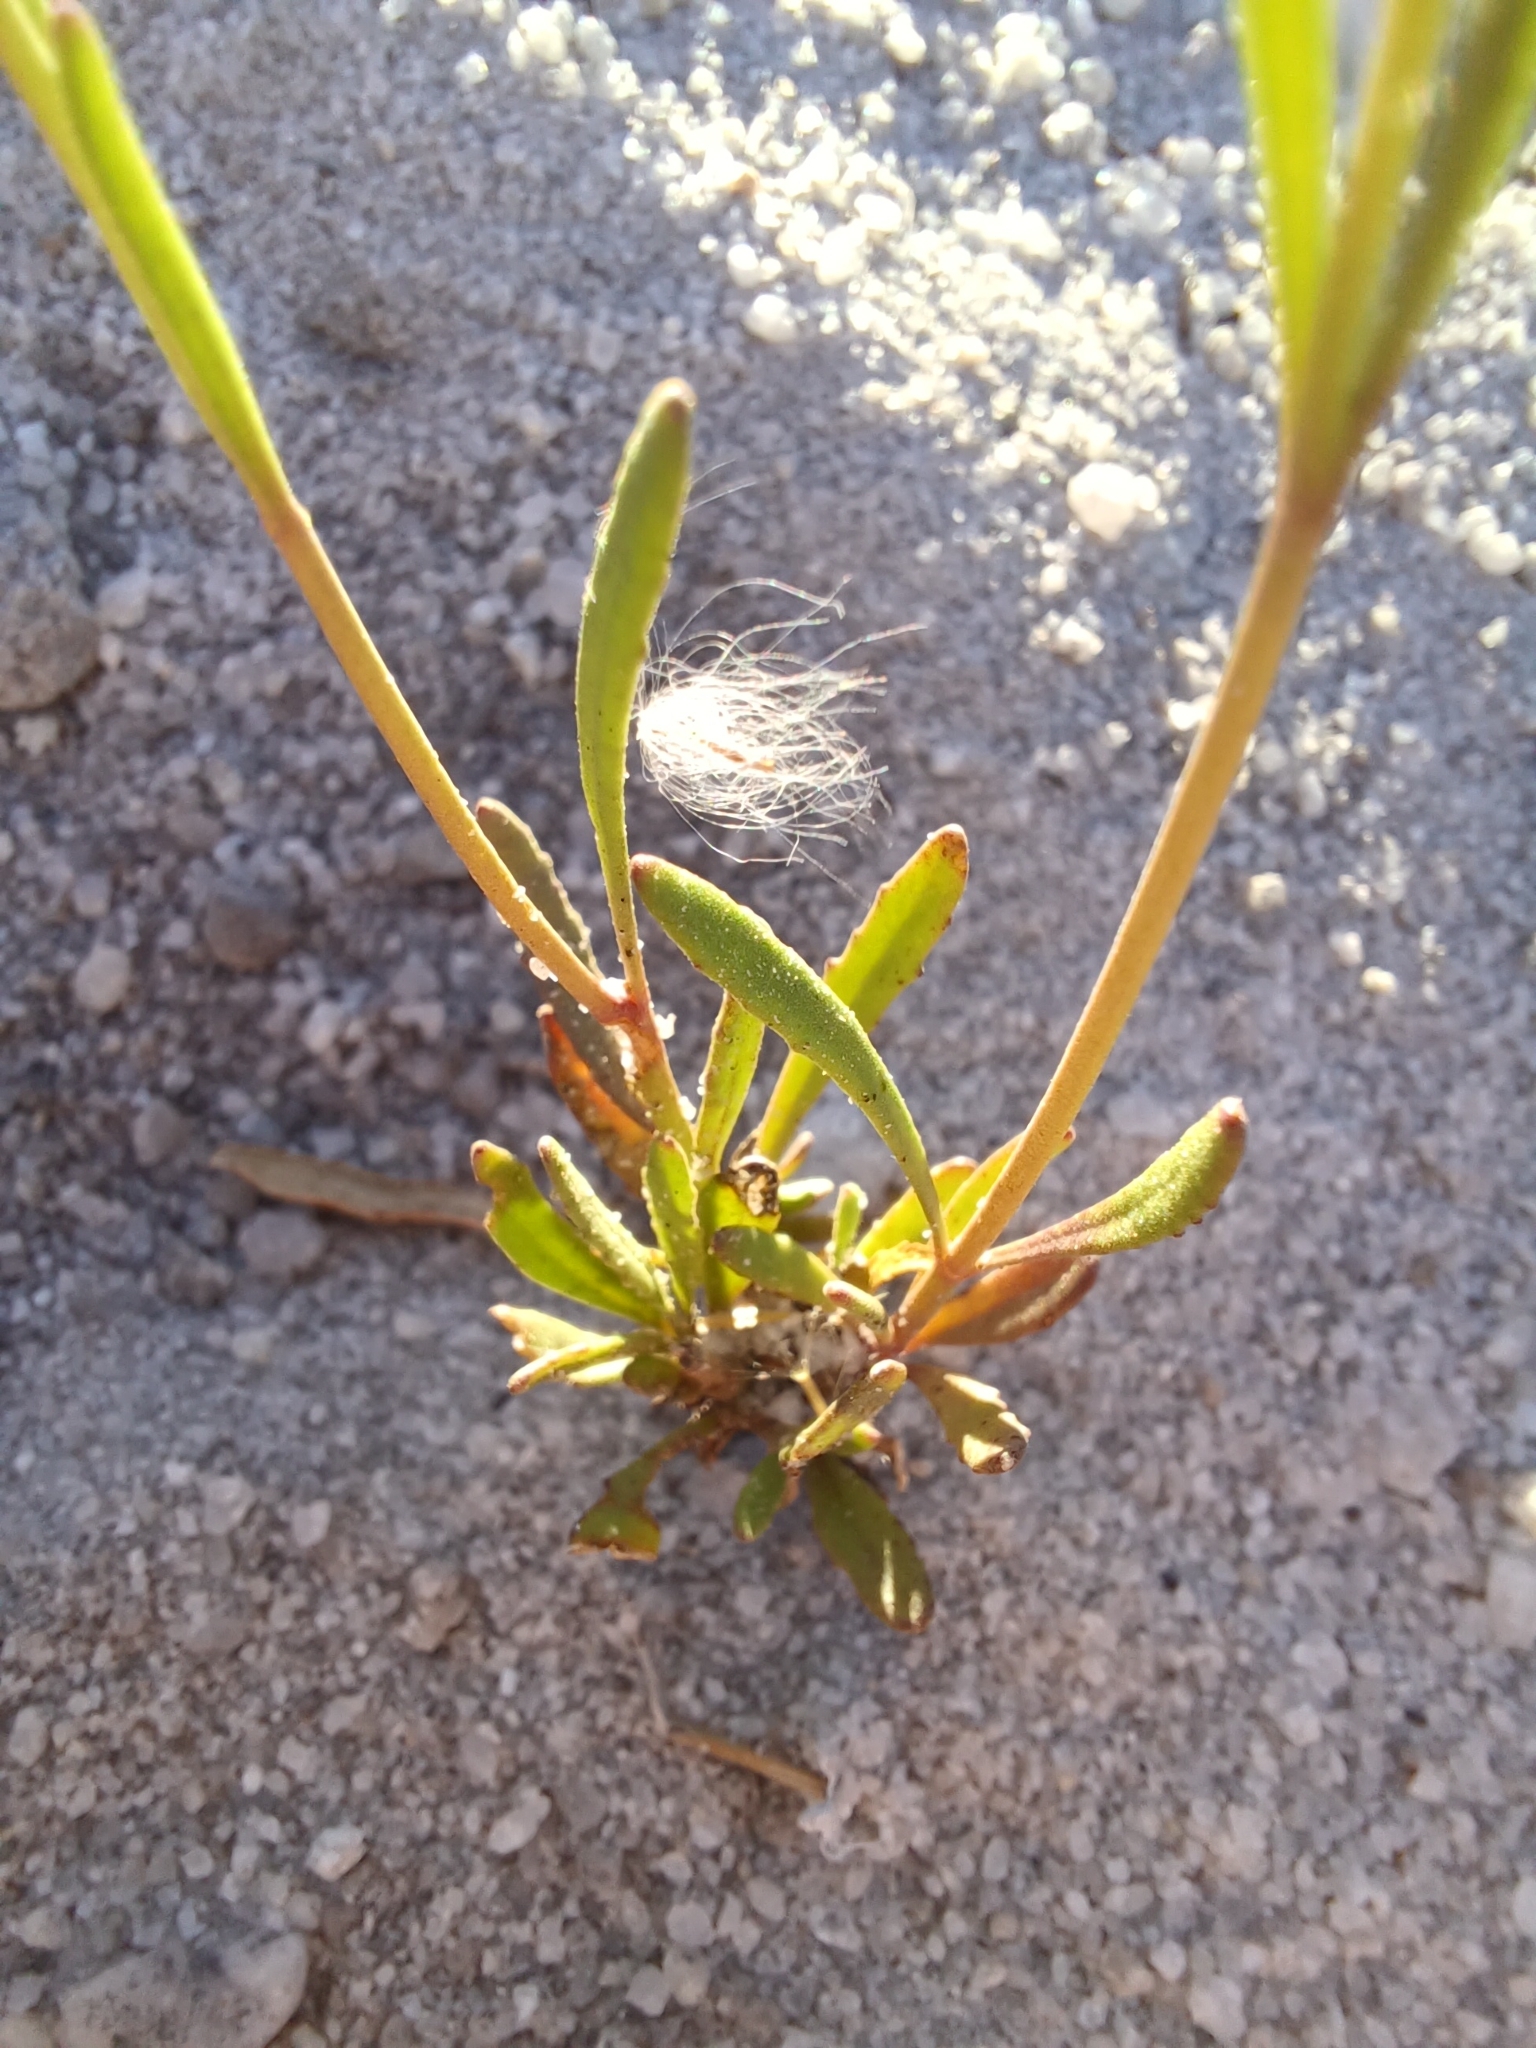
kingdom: Plantae
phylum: Tracheophyta
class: Magnoliopsida
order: Lamiales
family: Scrophulariaceae
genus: Manulea
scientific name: Manulea multispicata
